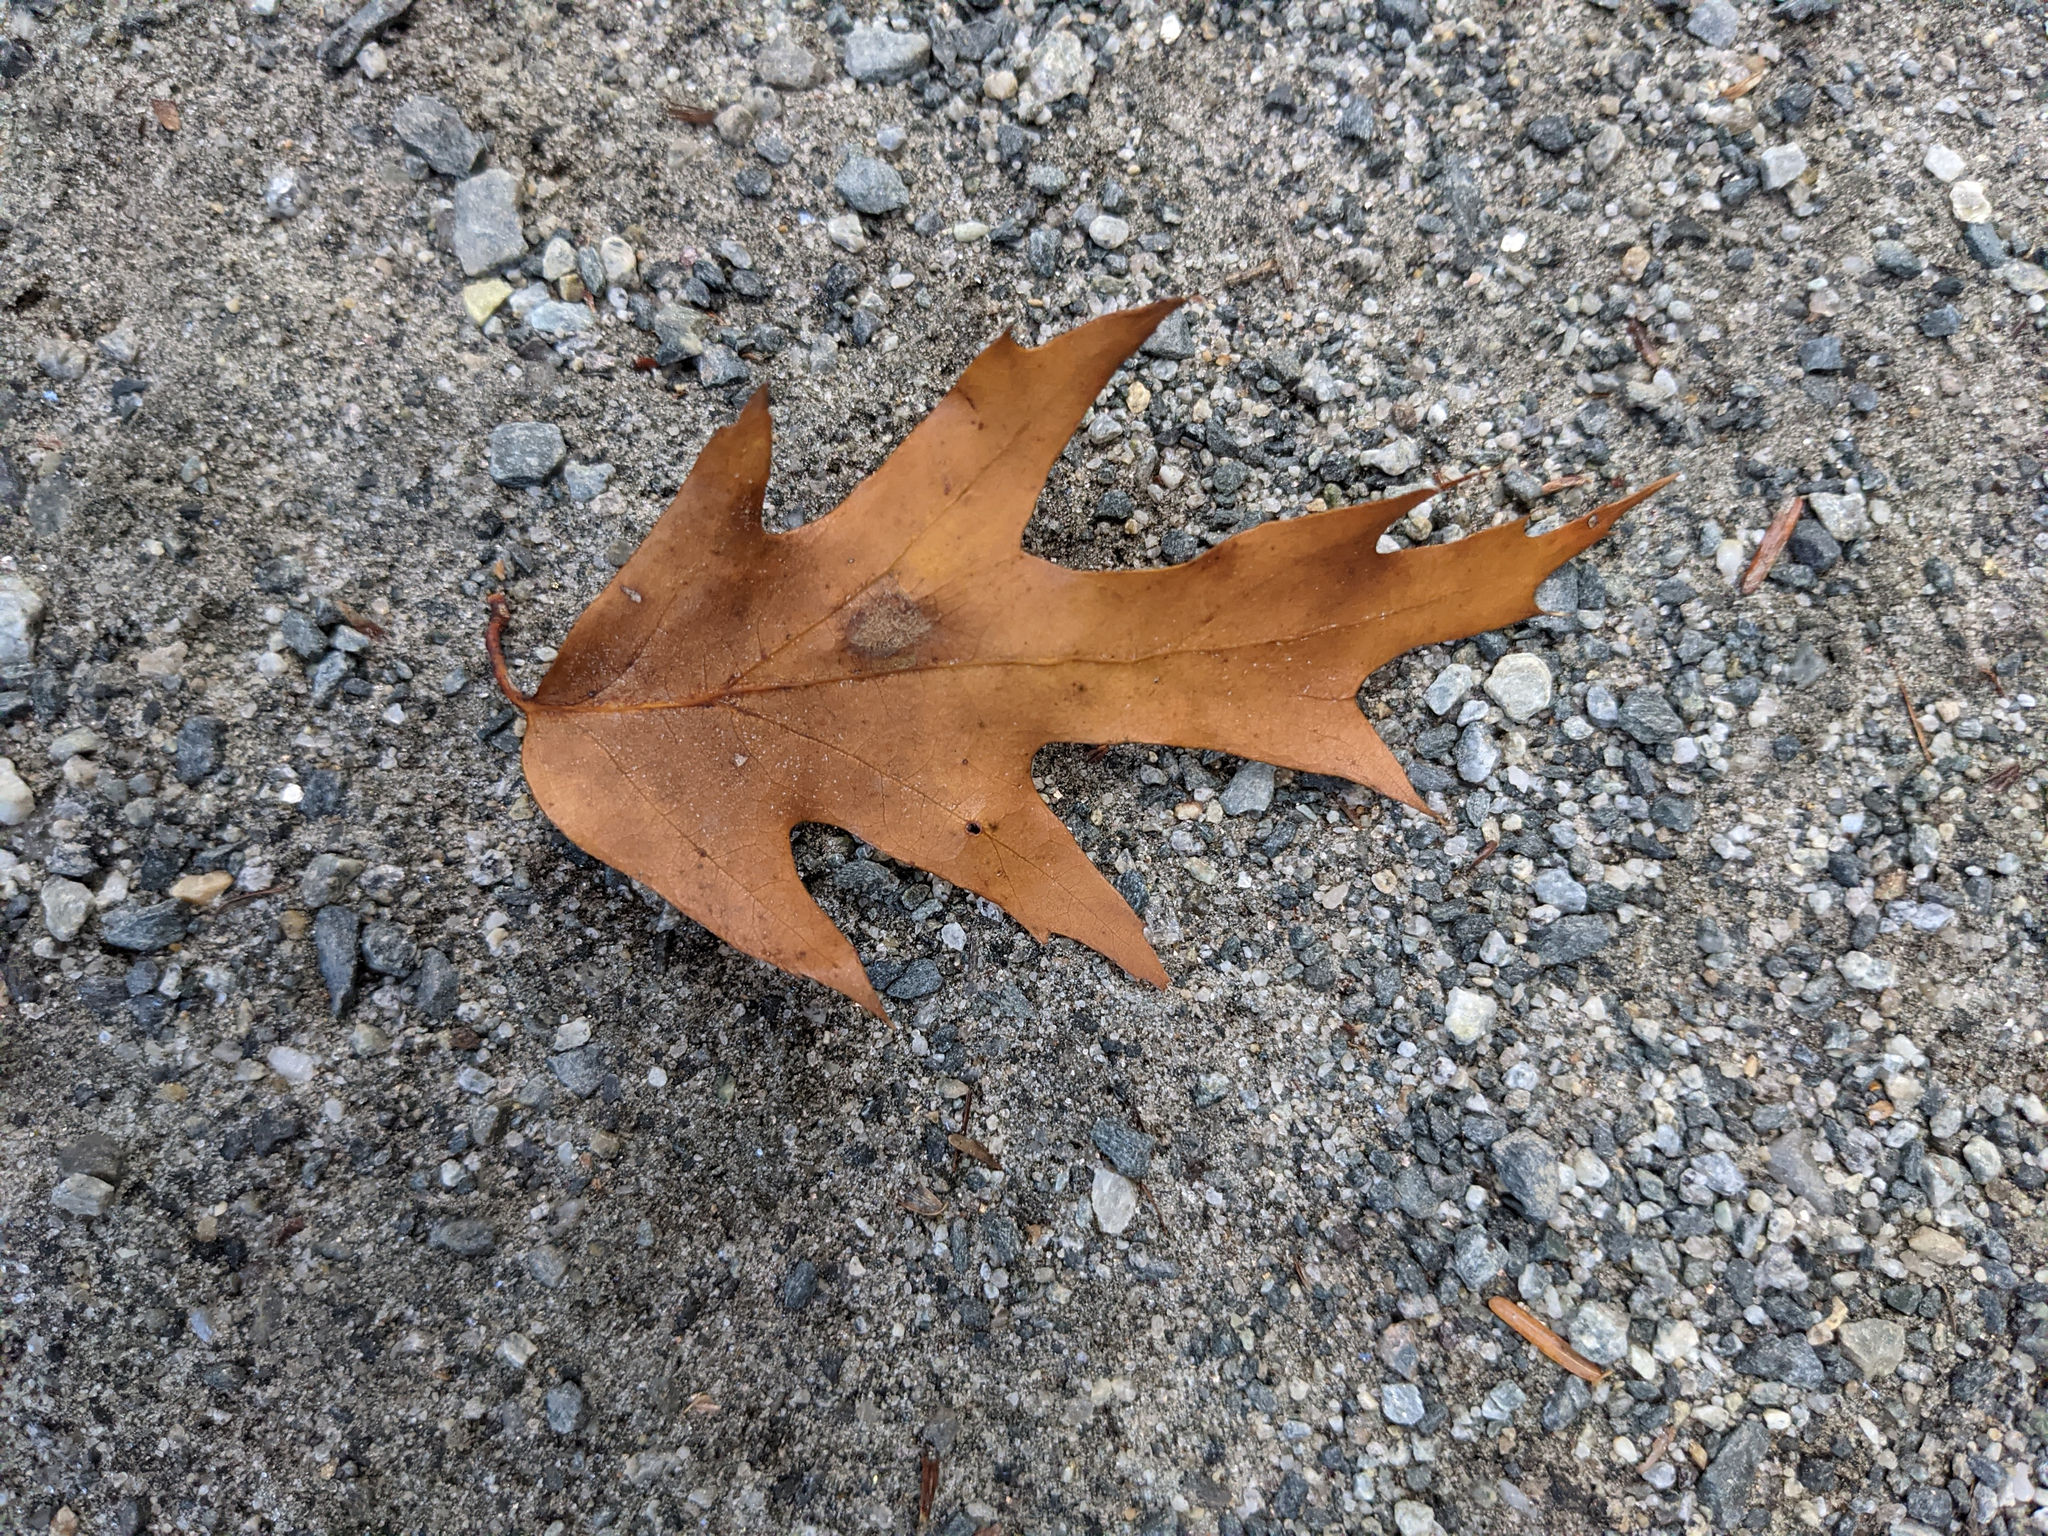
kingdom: Plantae
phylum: Tracheophyta
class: Magnoliopsida
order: Fagales
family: Fagaceae
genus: Quercus
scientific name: Quercus rubra
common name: Red oak
